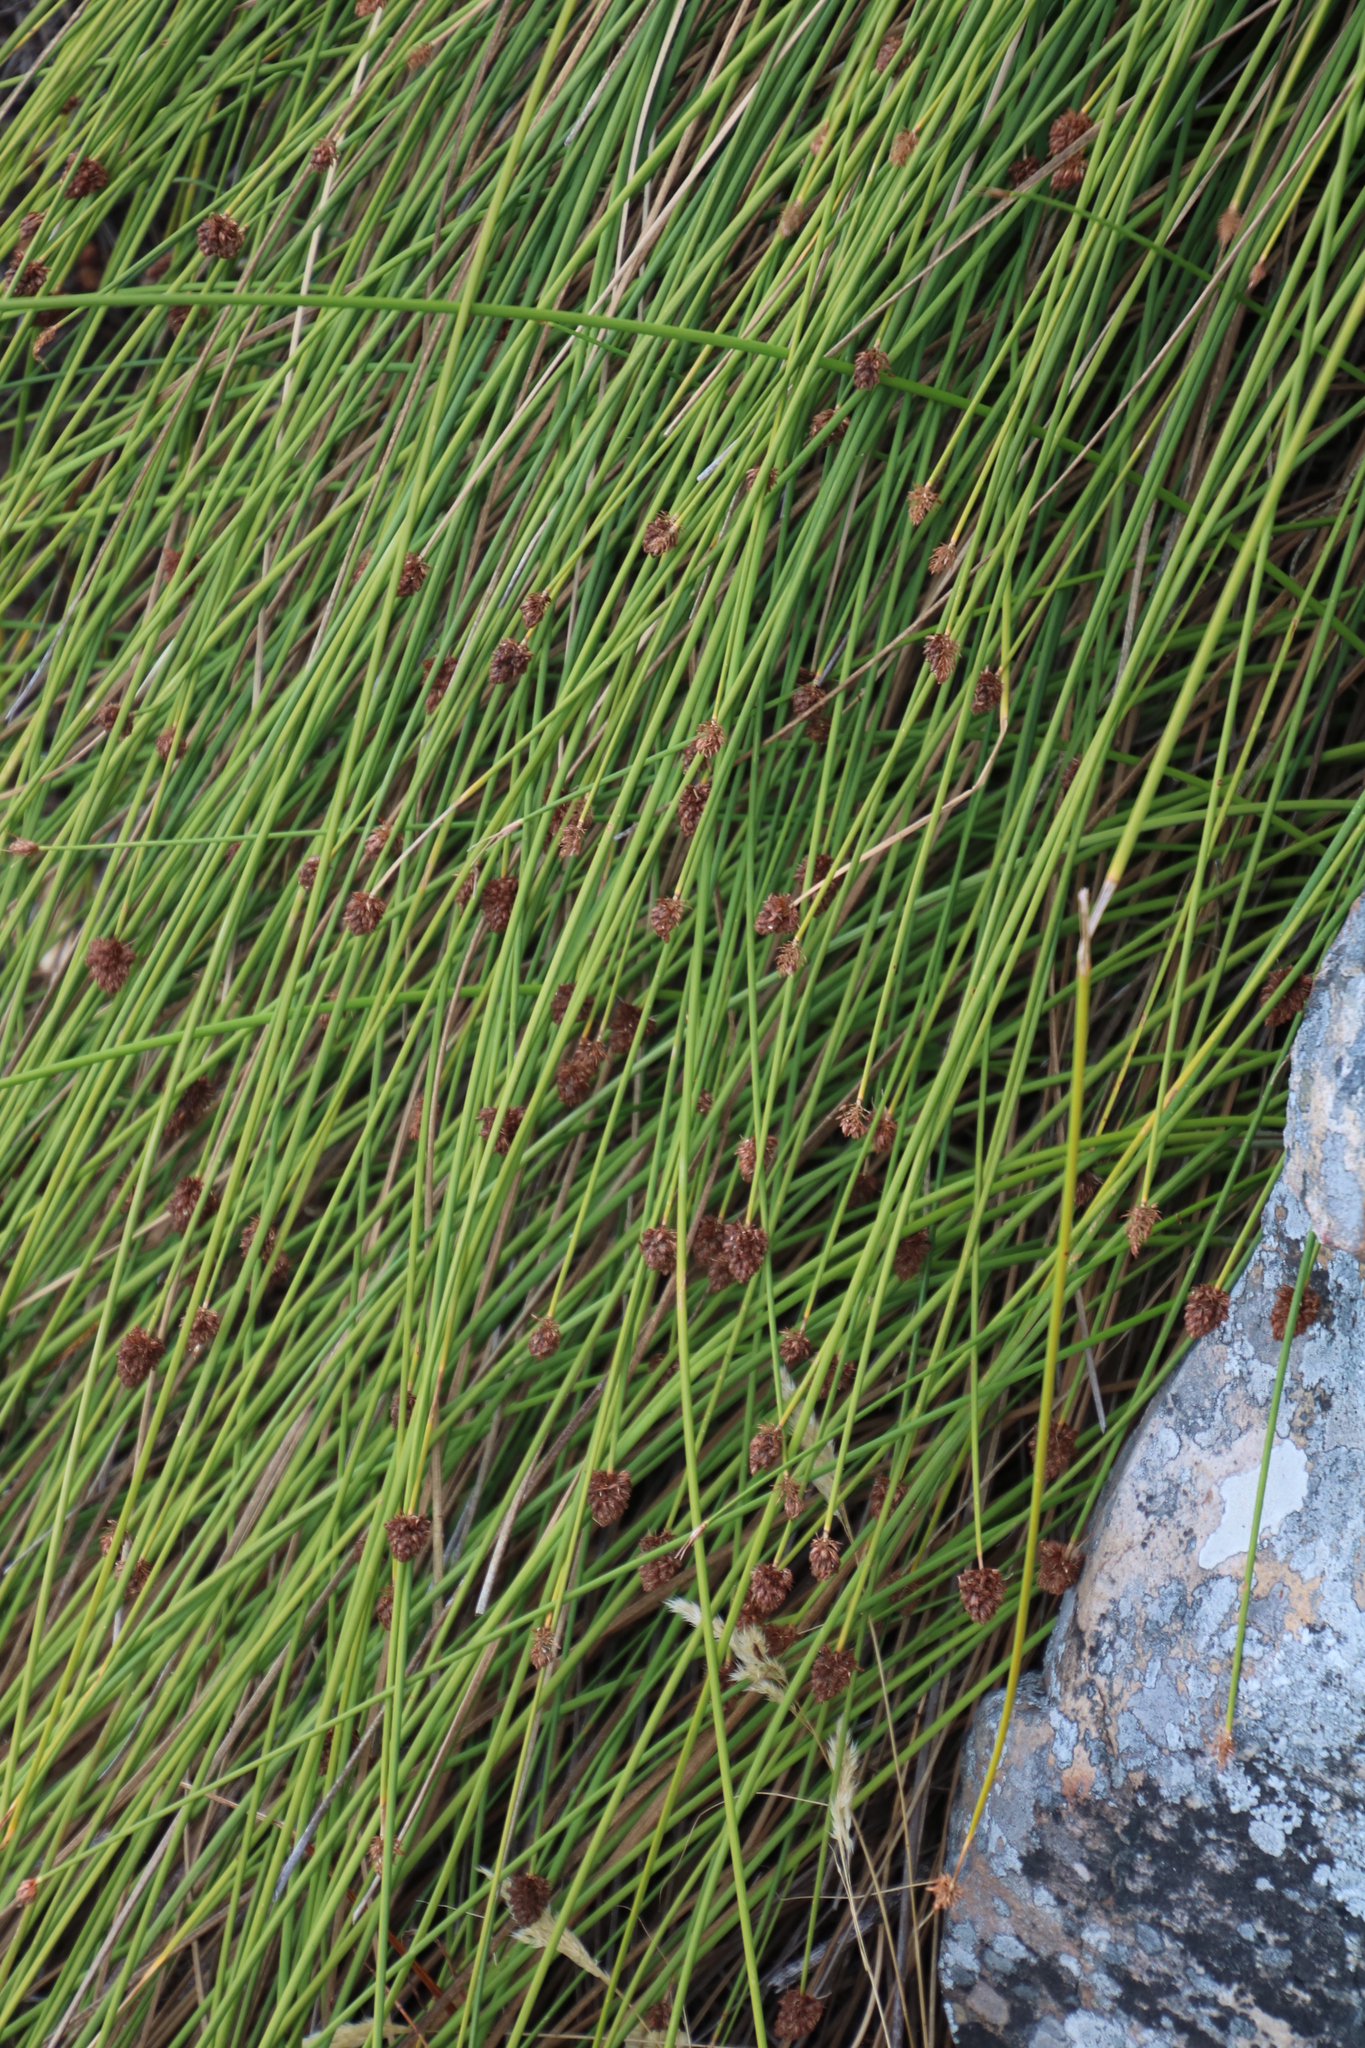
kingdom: Plantae
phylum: Tracheophyta
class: Liliopsida
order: Poales
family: Cyperaceae
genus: Ficinia
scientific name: Ficinia brevifolia
